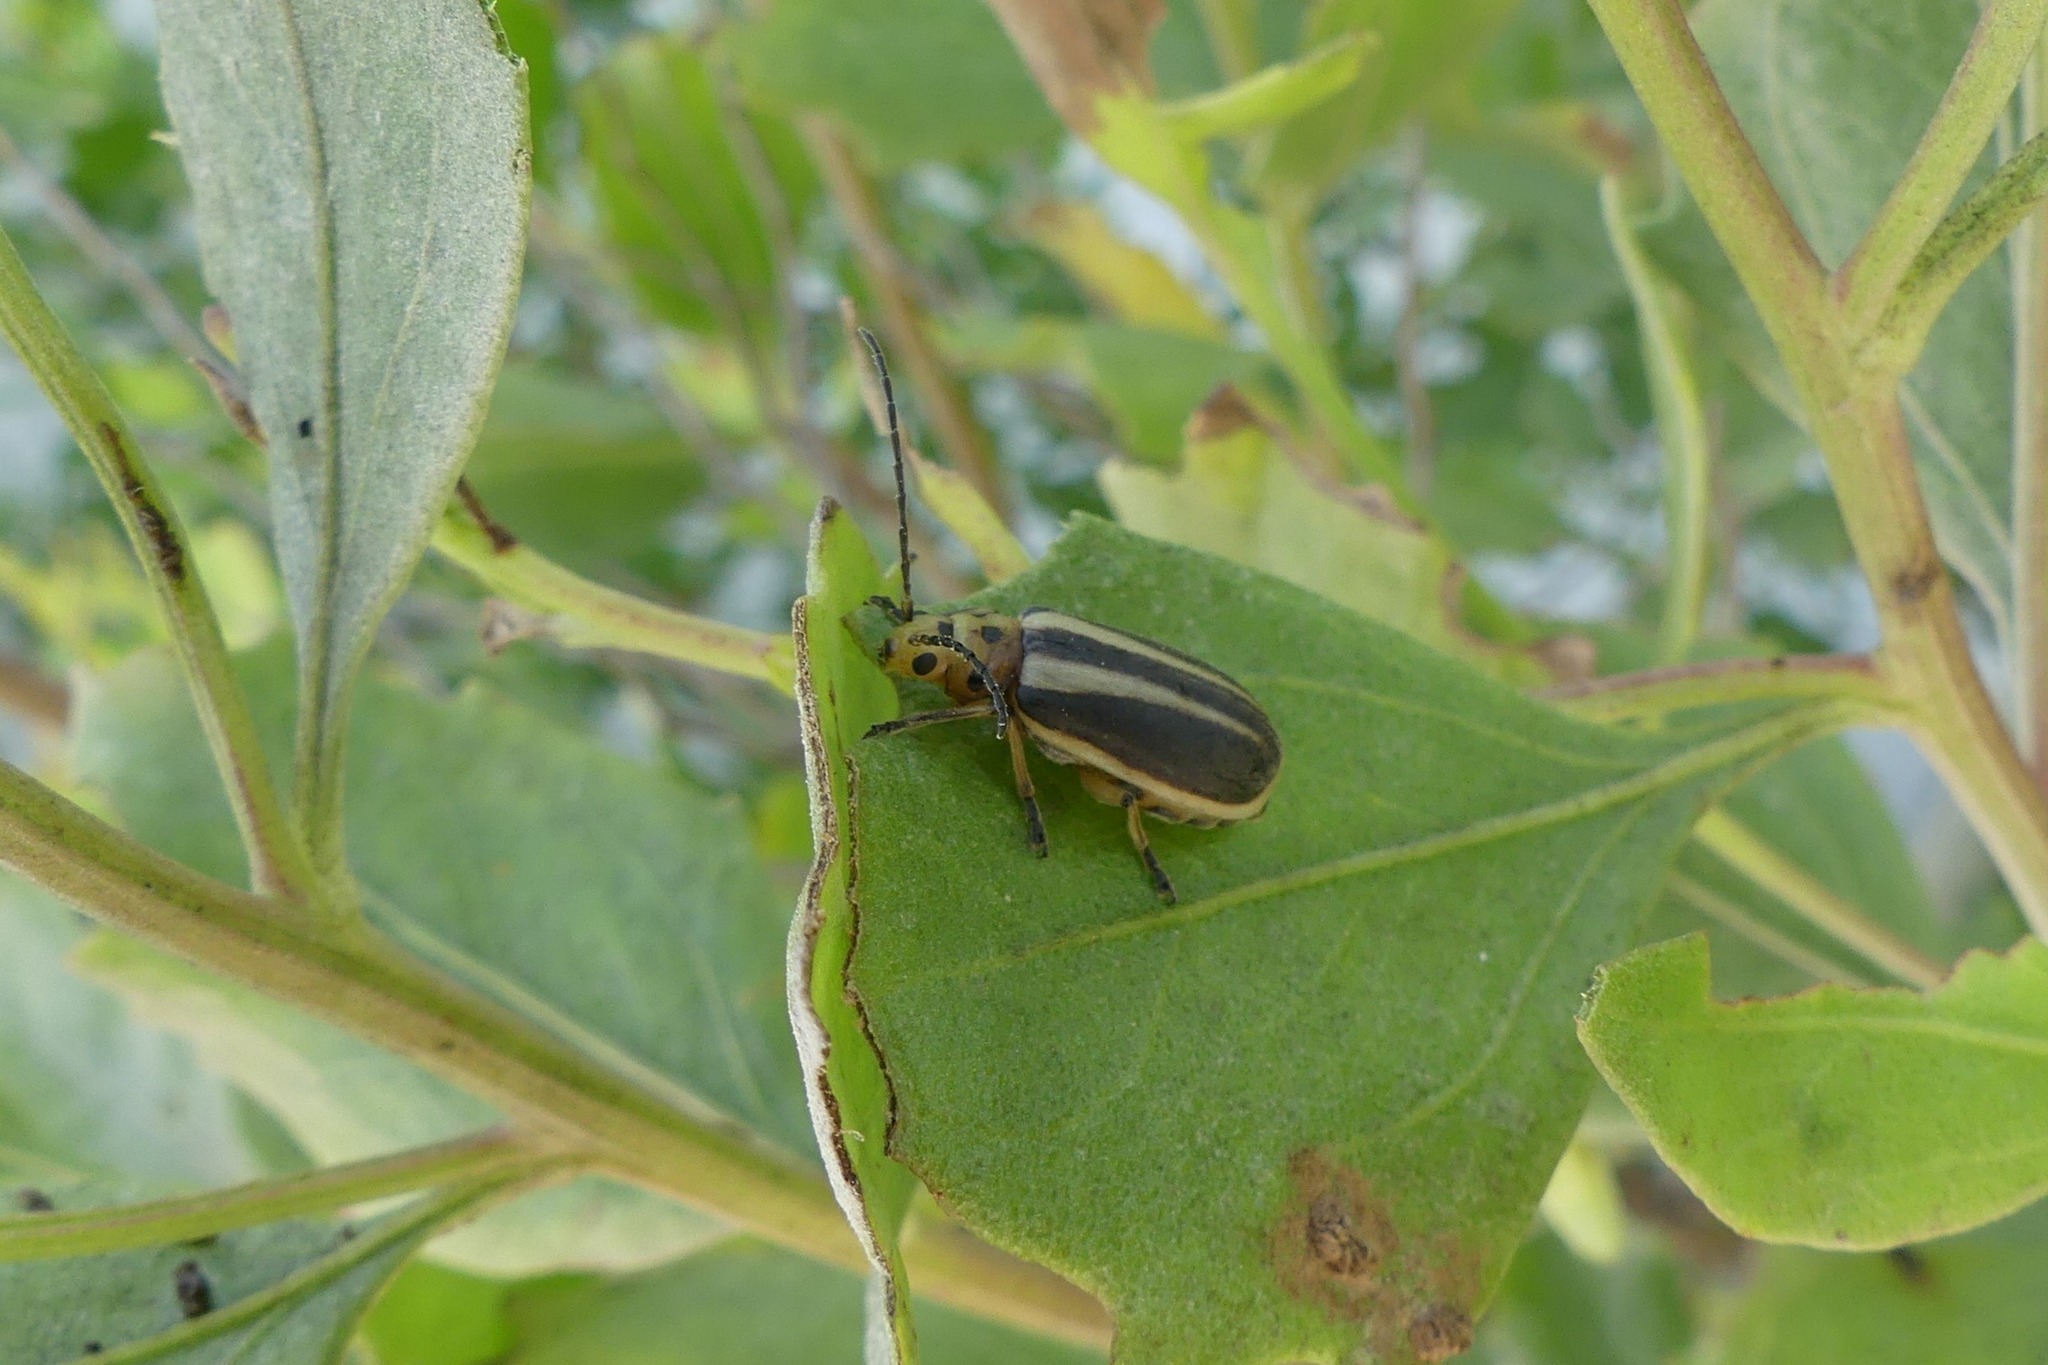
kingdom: Animalia
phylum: Arthropoda
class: Insecta
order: Coleoptera
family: Chrysomelidae
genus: Trirhabda
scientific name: Trirhabda bacharidis
